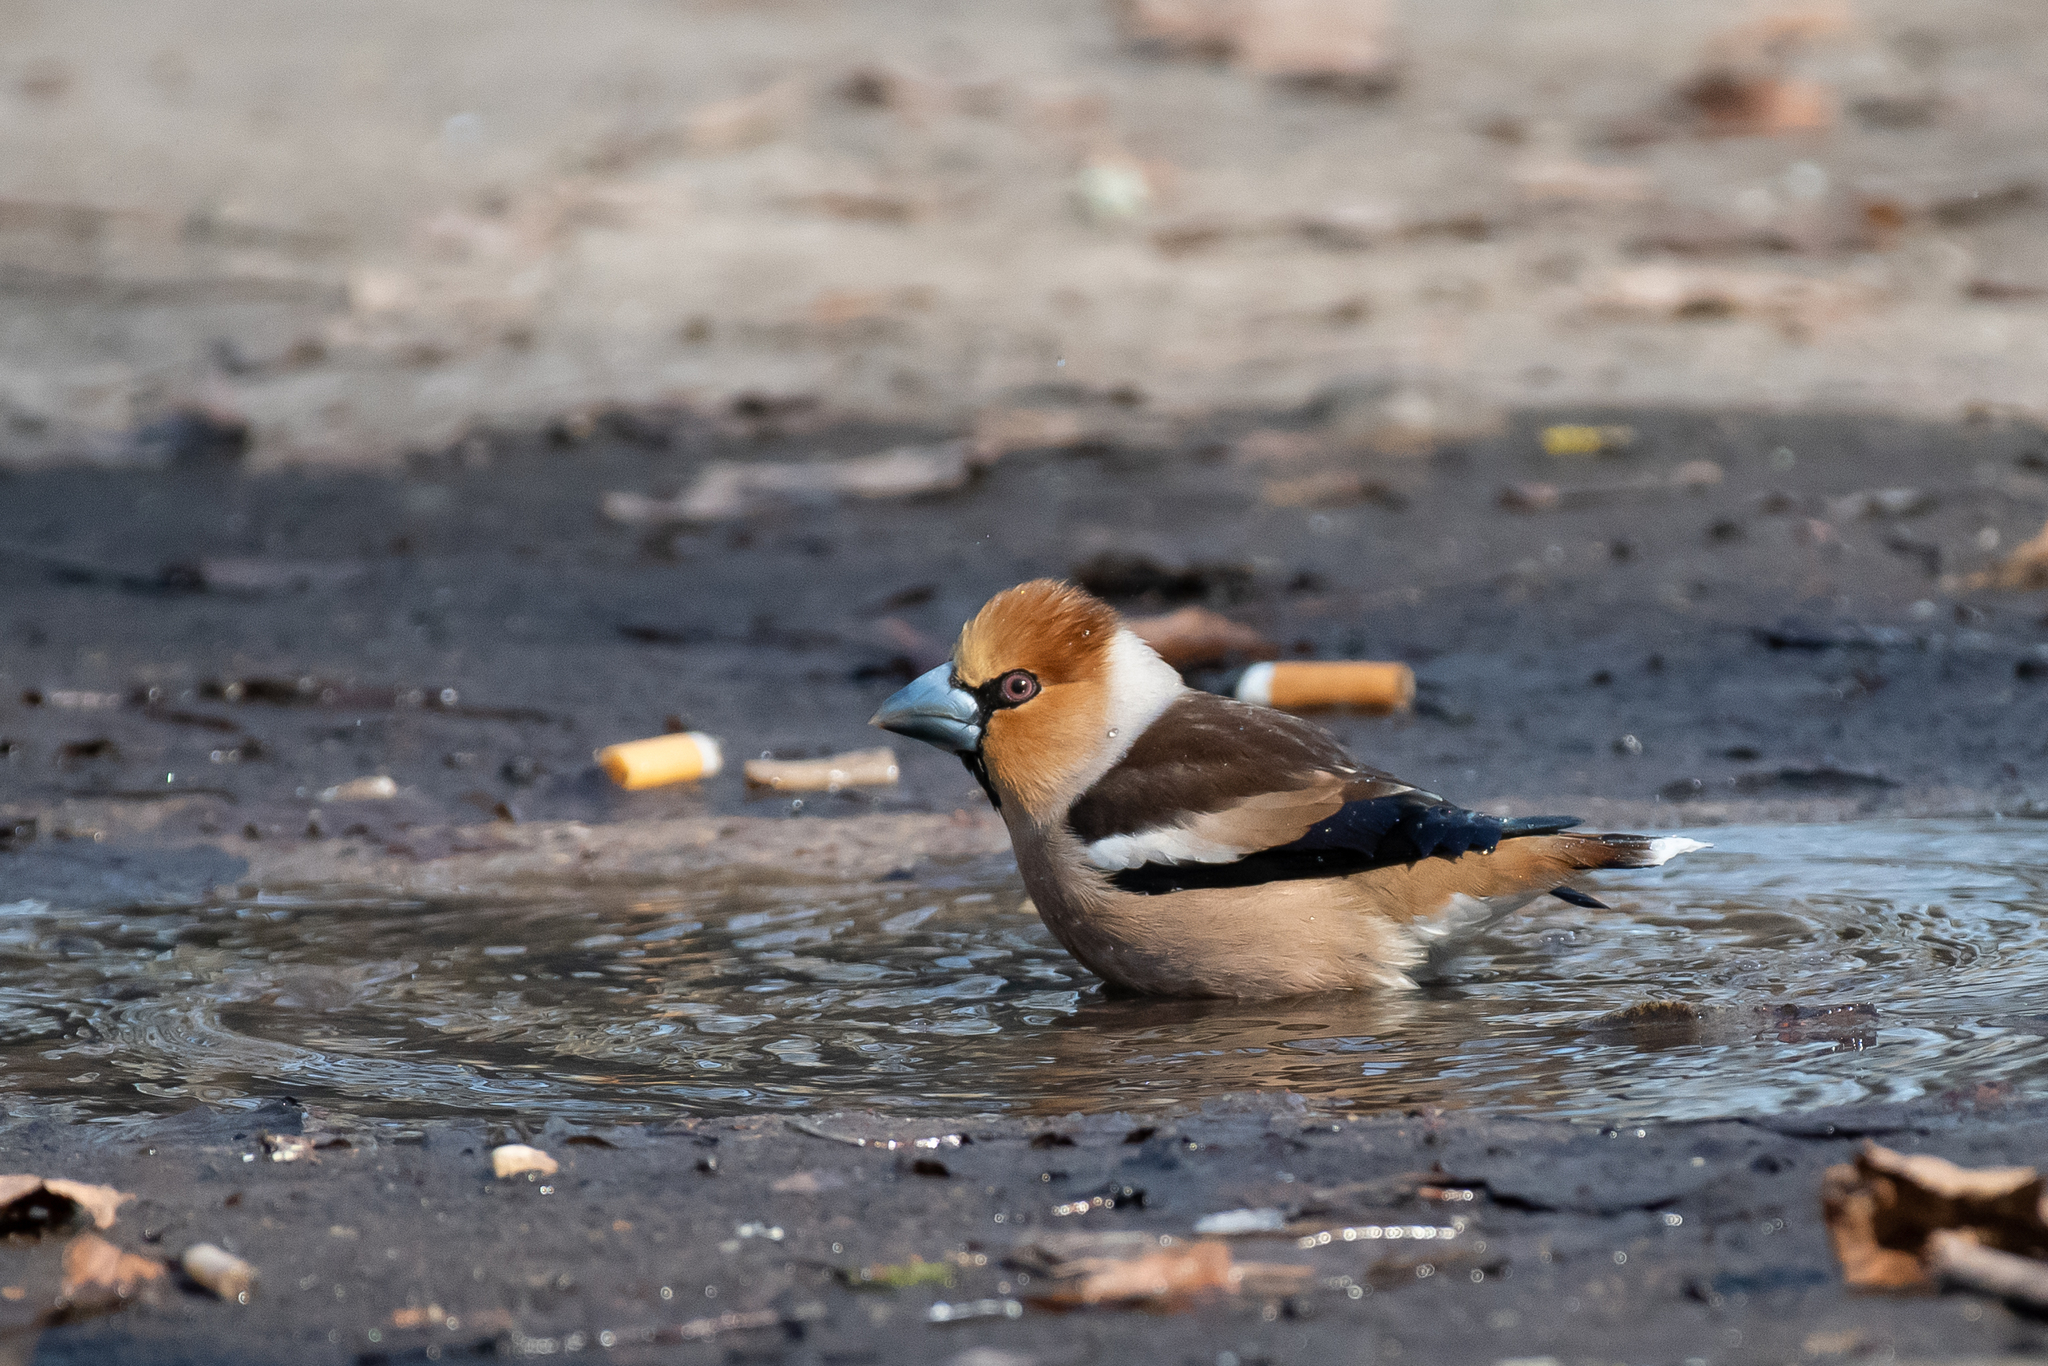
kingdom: Animalia
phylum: Chordata
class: Aves
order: Passeriformes
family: Fringillidae
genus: Coccothraustes
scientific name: Coccothraustes coccothraustes
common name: Hawfinch
